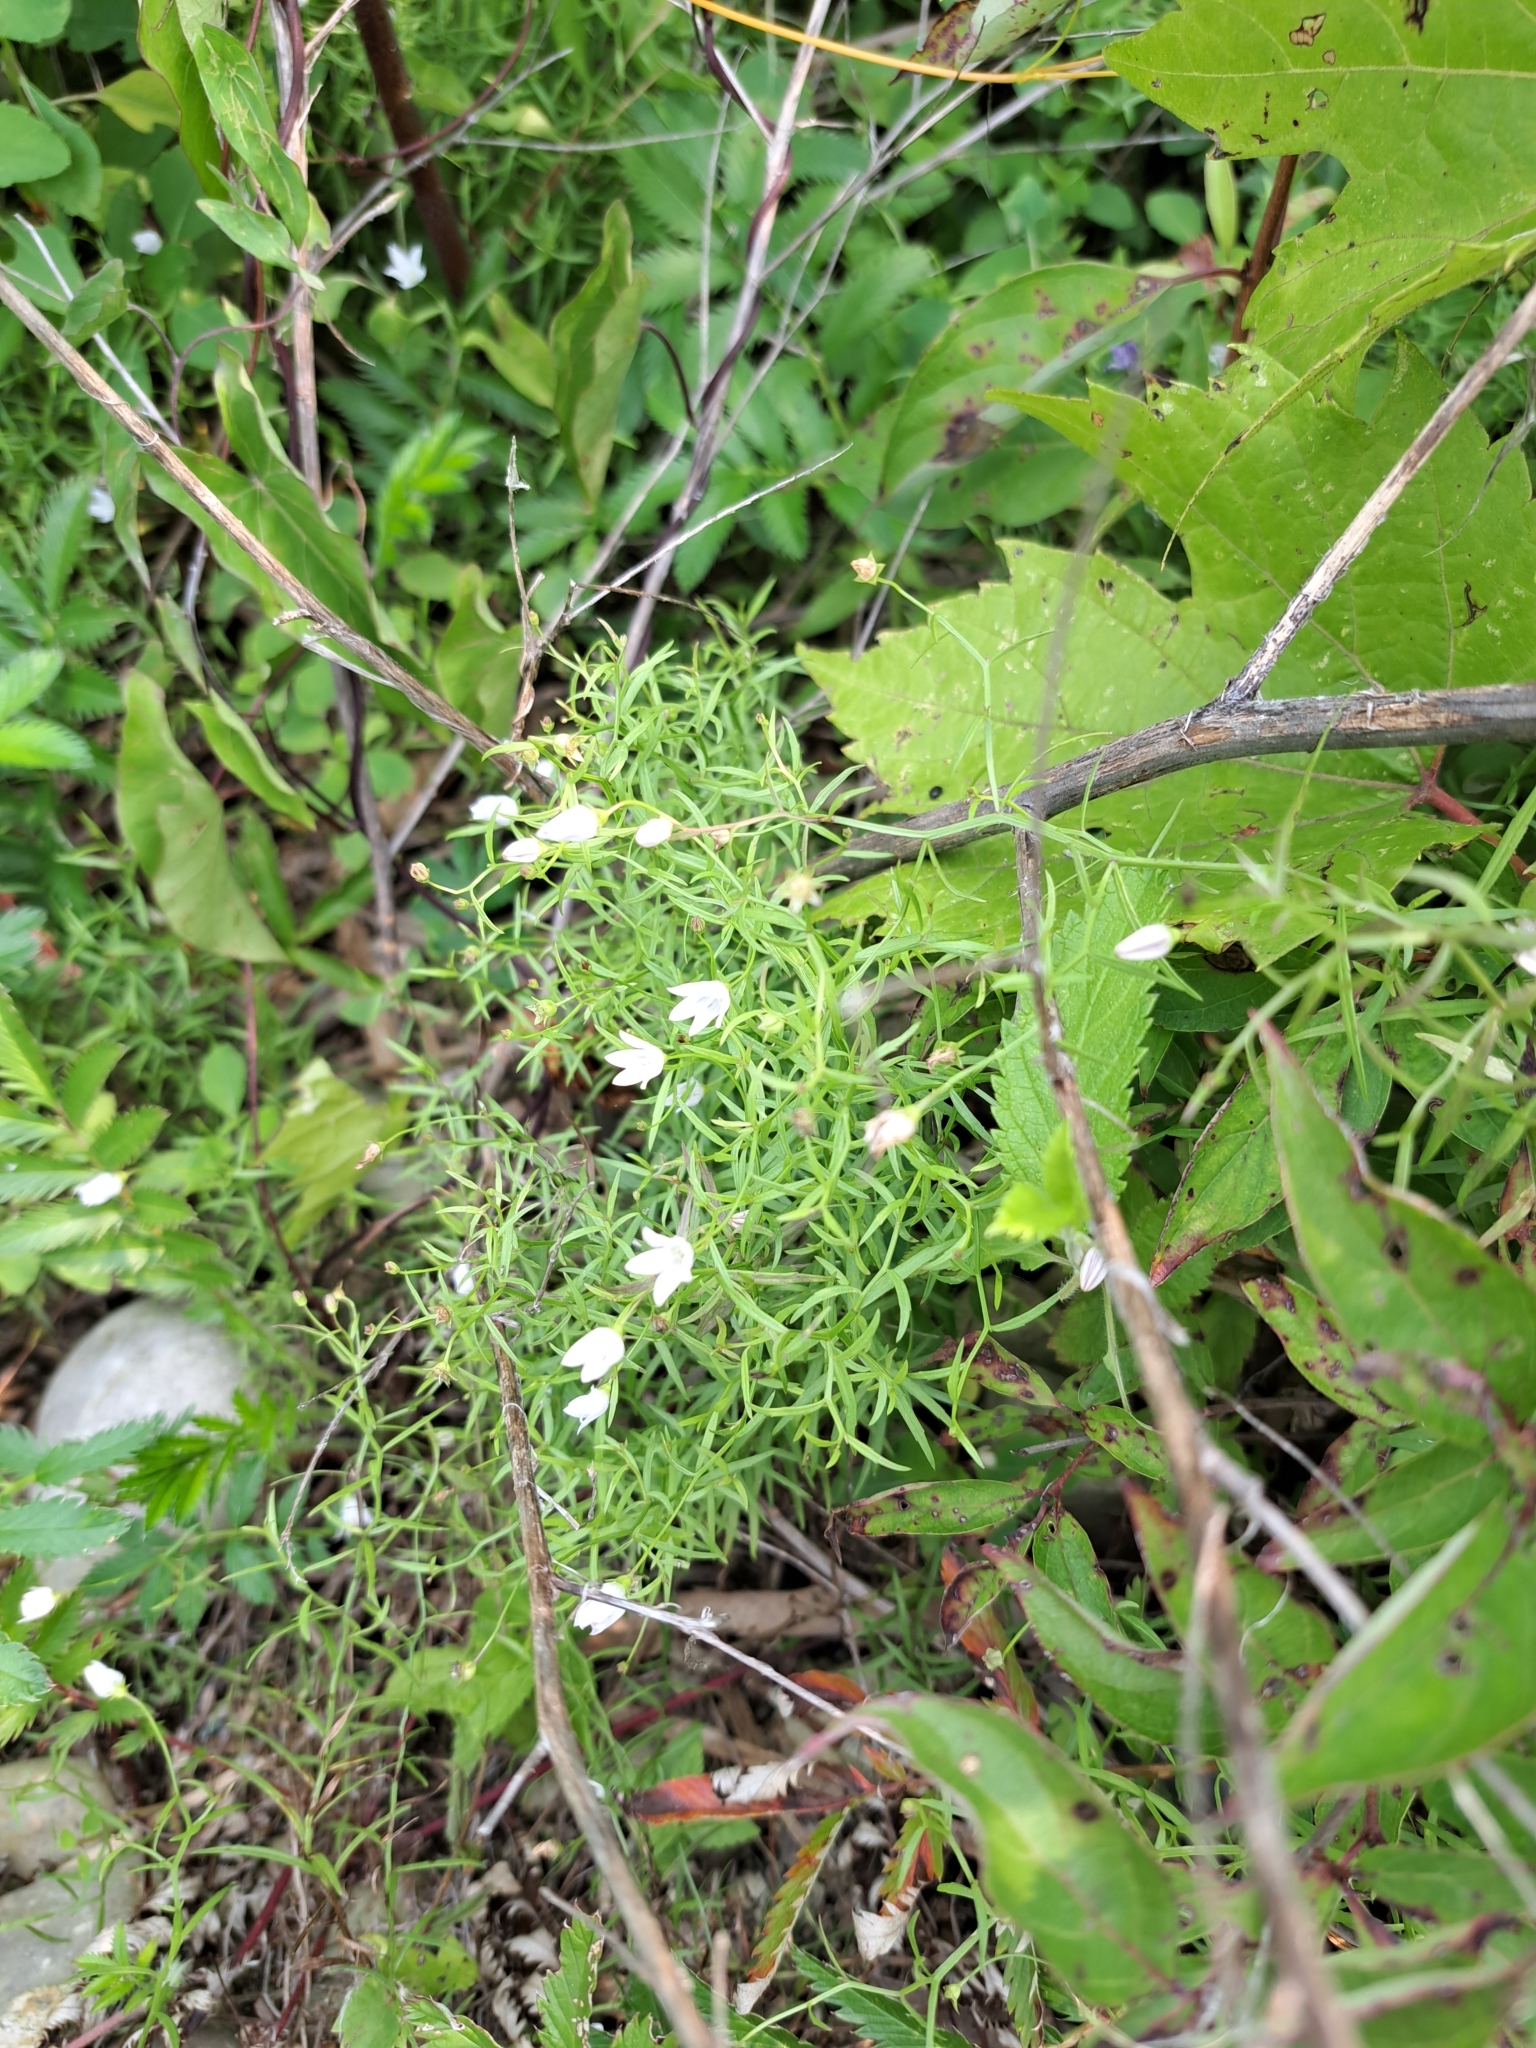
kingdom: Plantae
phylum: Tracheophyta
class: Magnoliopsida
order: Asterales
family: Campanulaceae
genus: Palustricodon
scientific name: Palustricodon aparinoides
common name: Bedstraw bellflower
